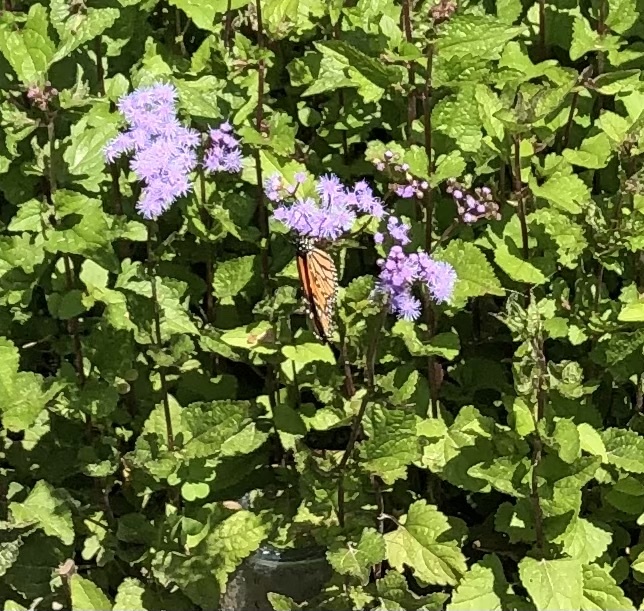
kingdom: Animalia
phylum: Arthropoda
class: Insecta
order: Lepidoptera
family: Nymphalidae
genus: Danaus
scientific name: Danaus plexippus
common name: Monarch
